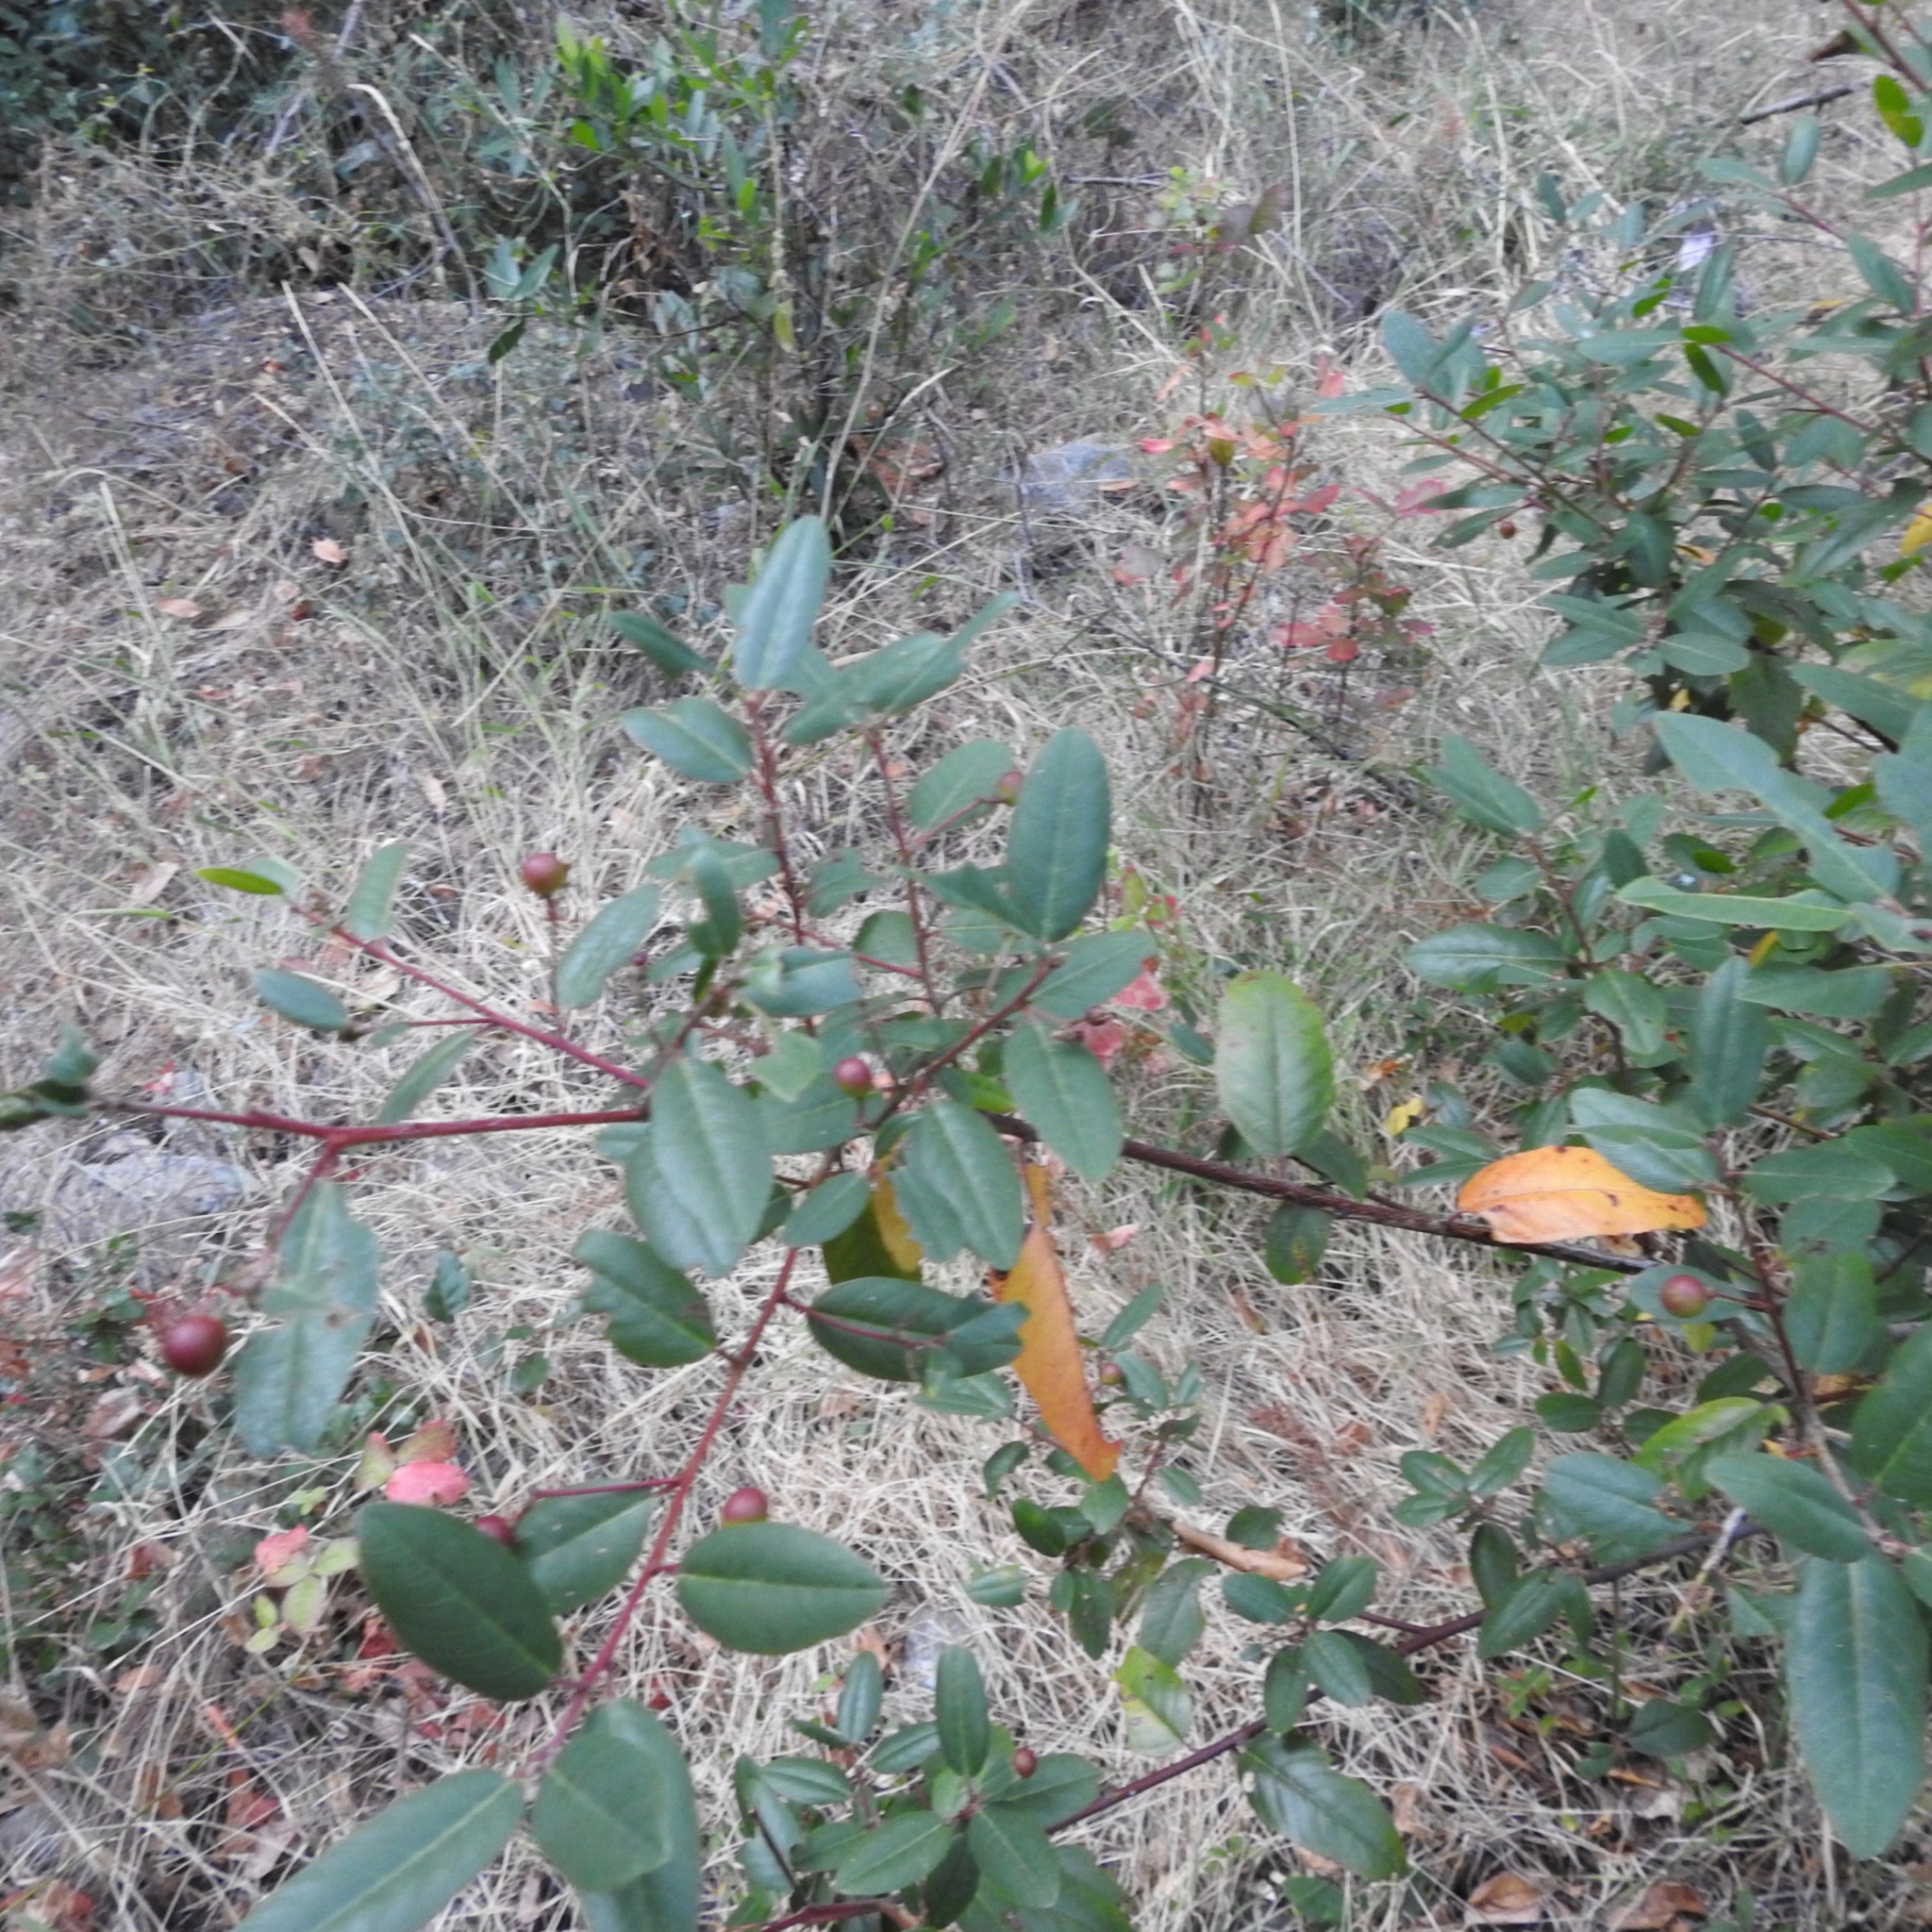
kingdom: Plantae
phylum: Tracheophyta
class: Magnoliopsida
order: Rosales
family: Rhamnaceae
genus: Frangula
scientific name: Frangula californica
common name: California buckthorn
